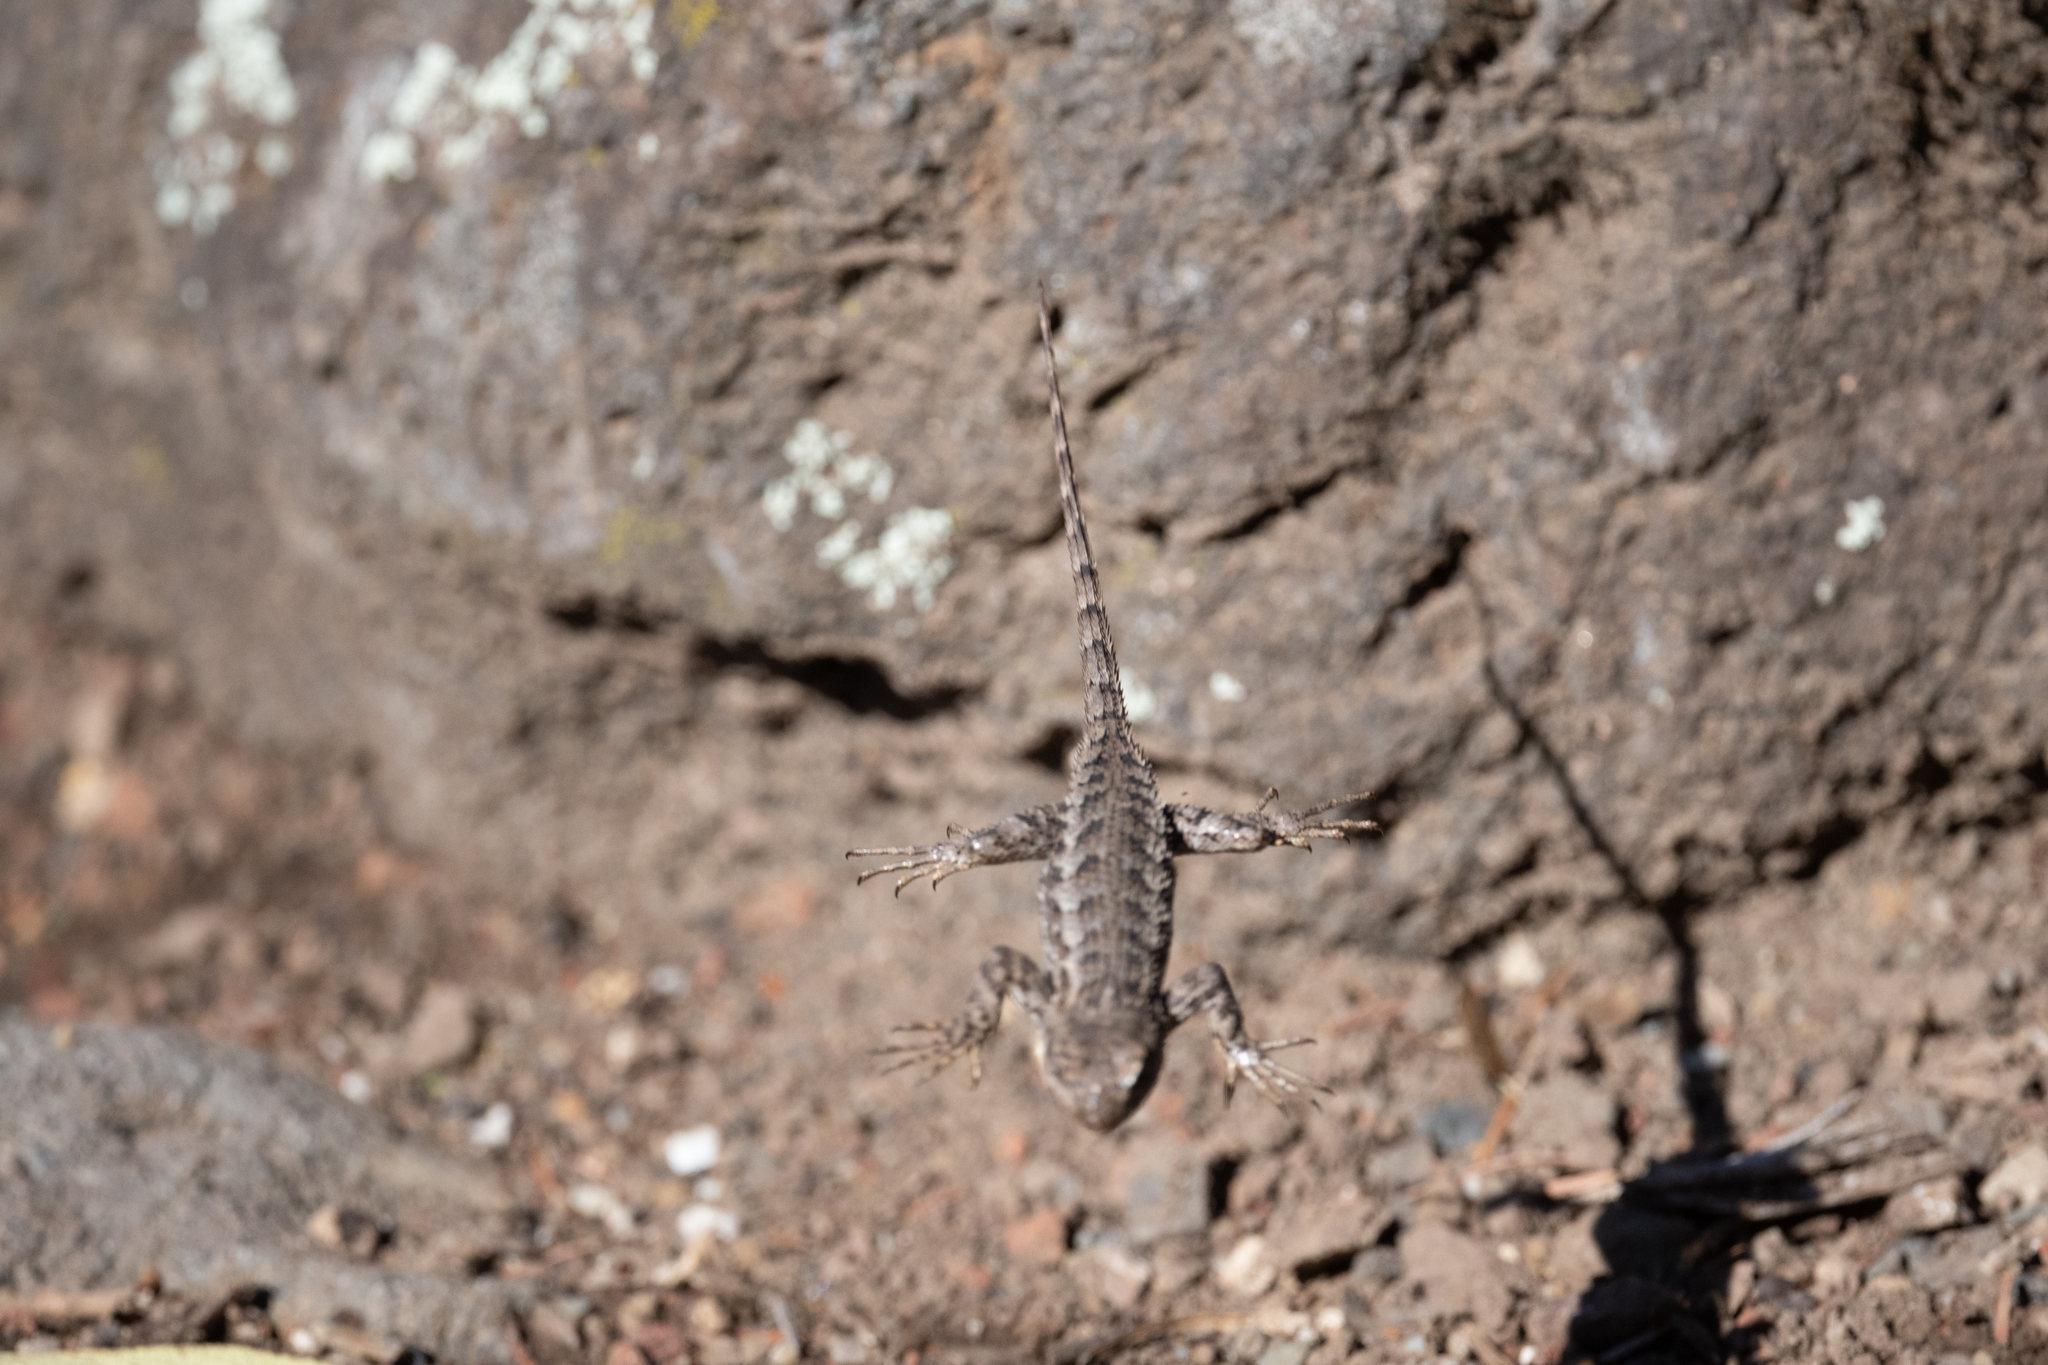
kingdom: Animalia
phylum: Chordata
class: Squamata
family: Phrynosomatidae
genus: Sceloporus
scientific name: Sceloporus occidentalis
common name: Western fence lizard
